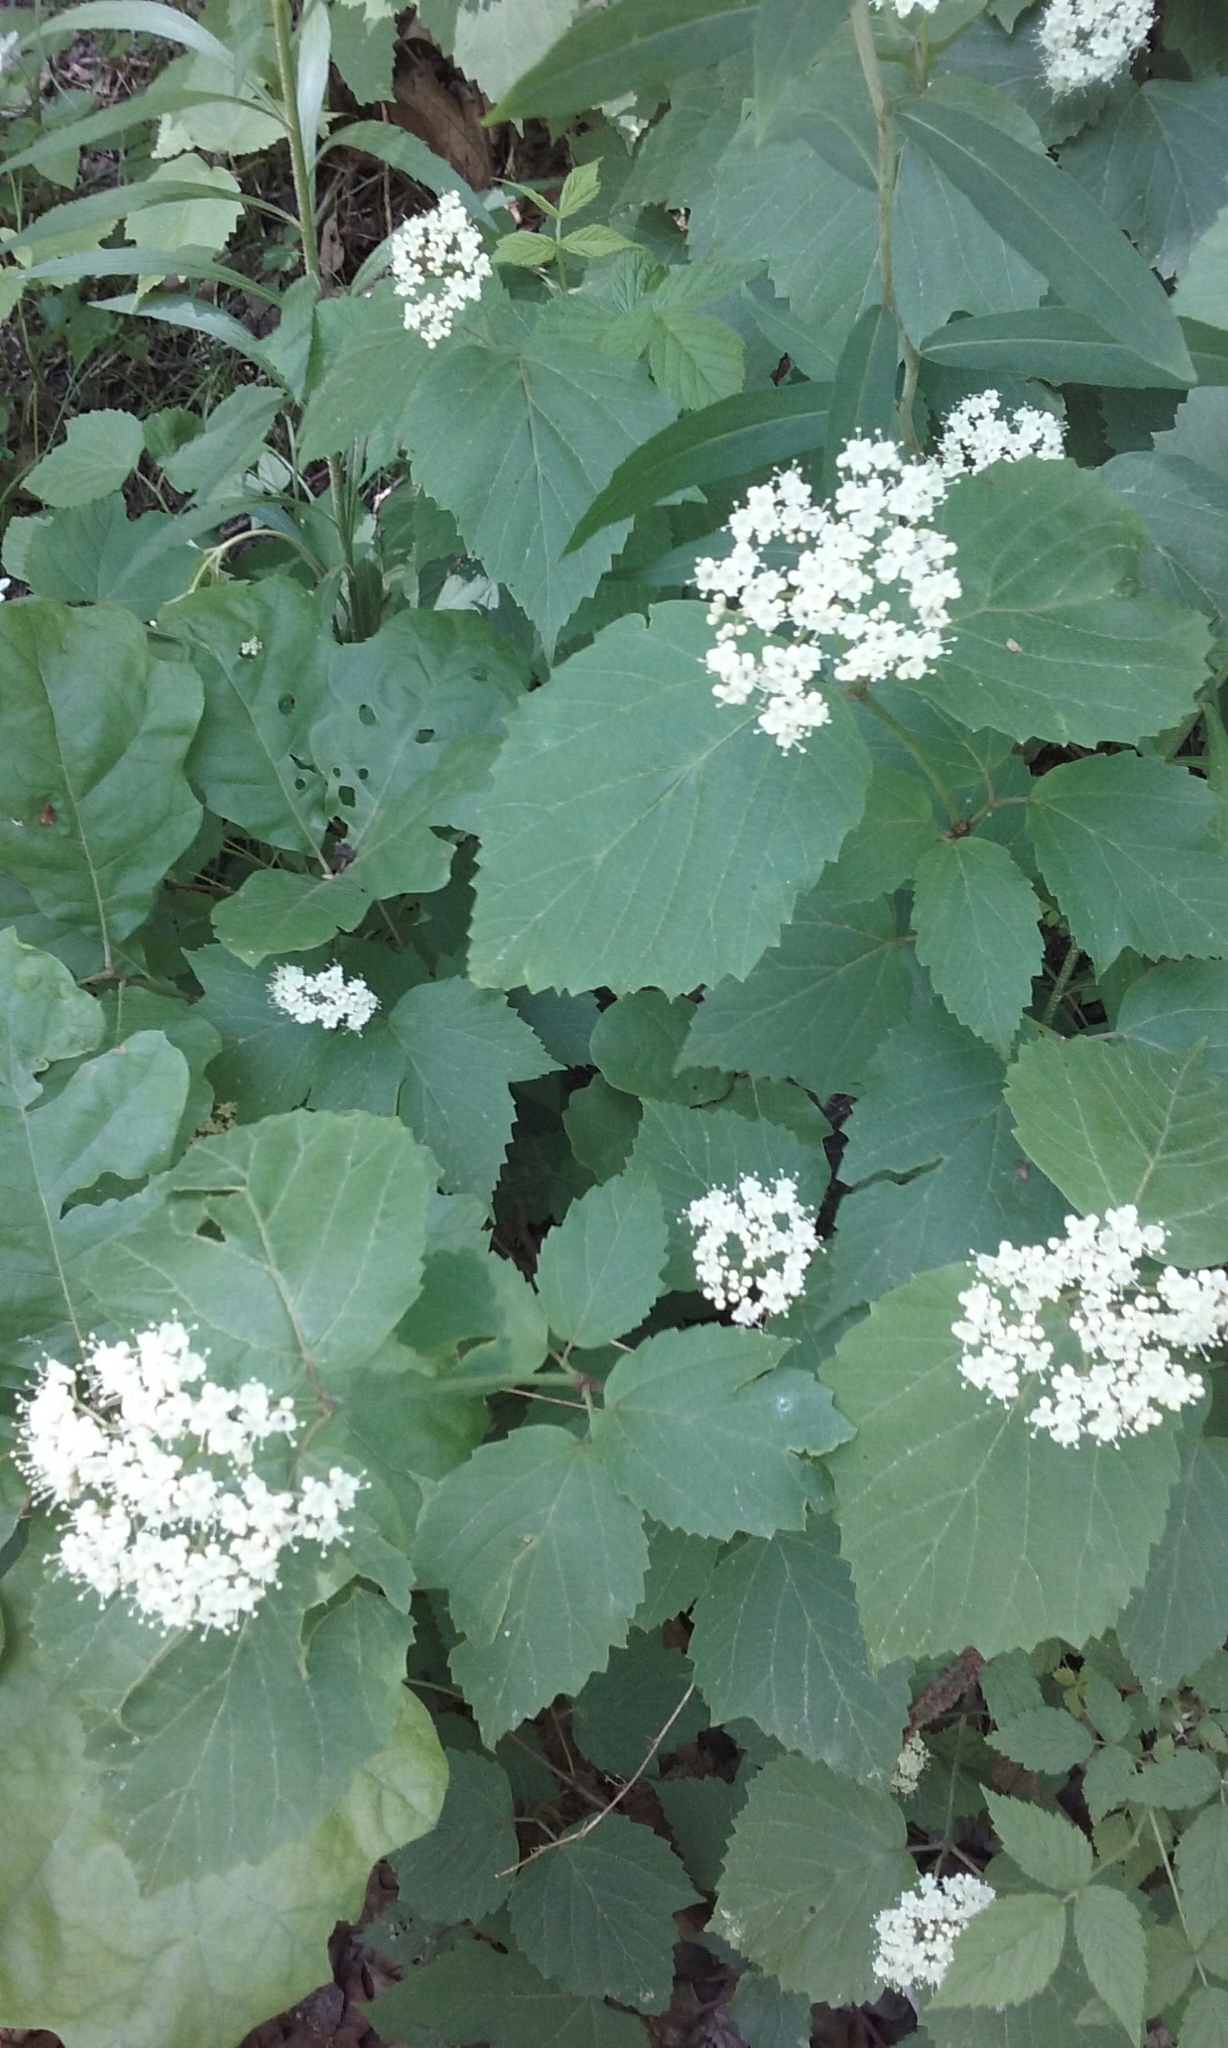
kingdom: Plantae
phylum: Tracheophyta
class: Magnoliopsida
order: Dipsacales
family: Viburnaceae
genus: Viburnum
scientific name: Viburnum acerifolium
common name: Dockmackie
